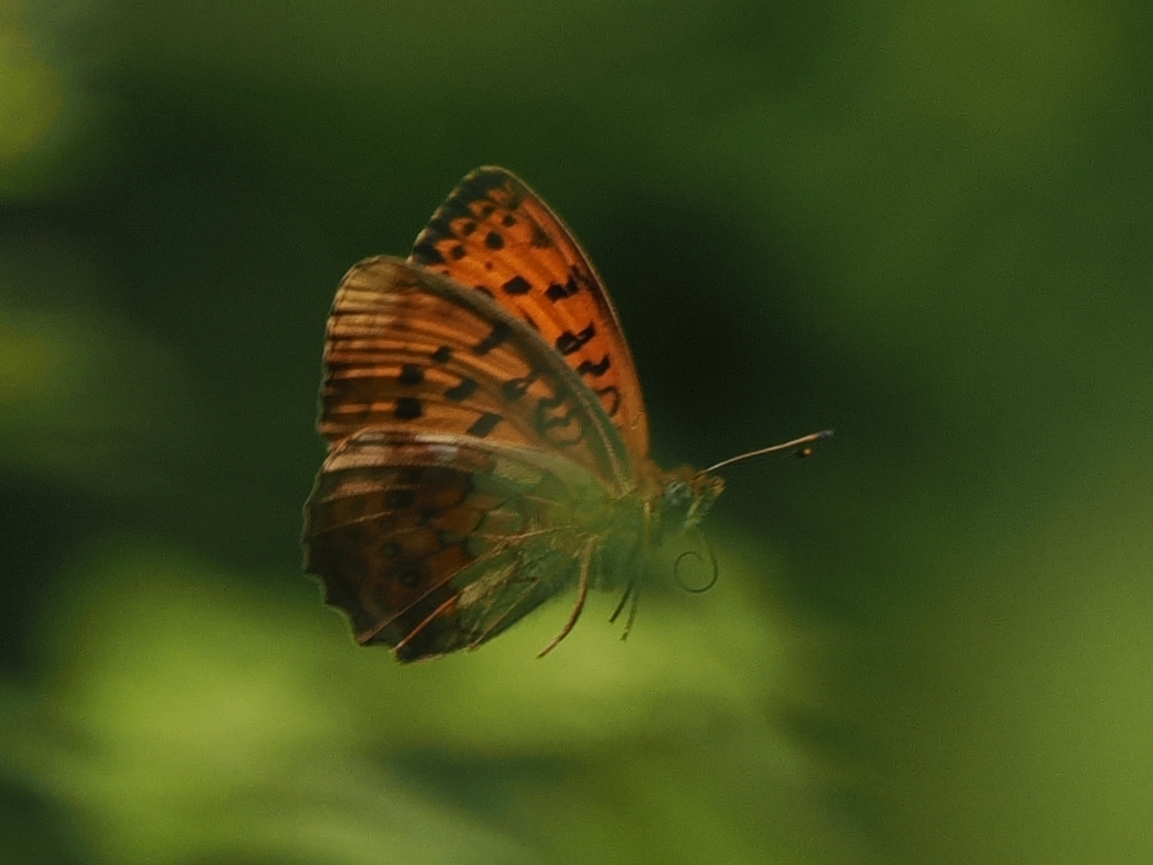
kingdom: Animalia
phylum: Arthropoda
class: Insecta
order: Lepidoptera
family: Nymphalidae
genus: Brenthis
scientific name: Brenthis daphne
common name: Marbled fritillary
